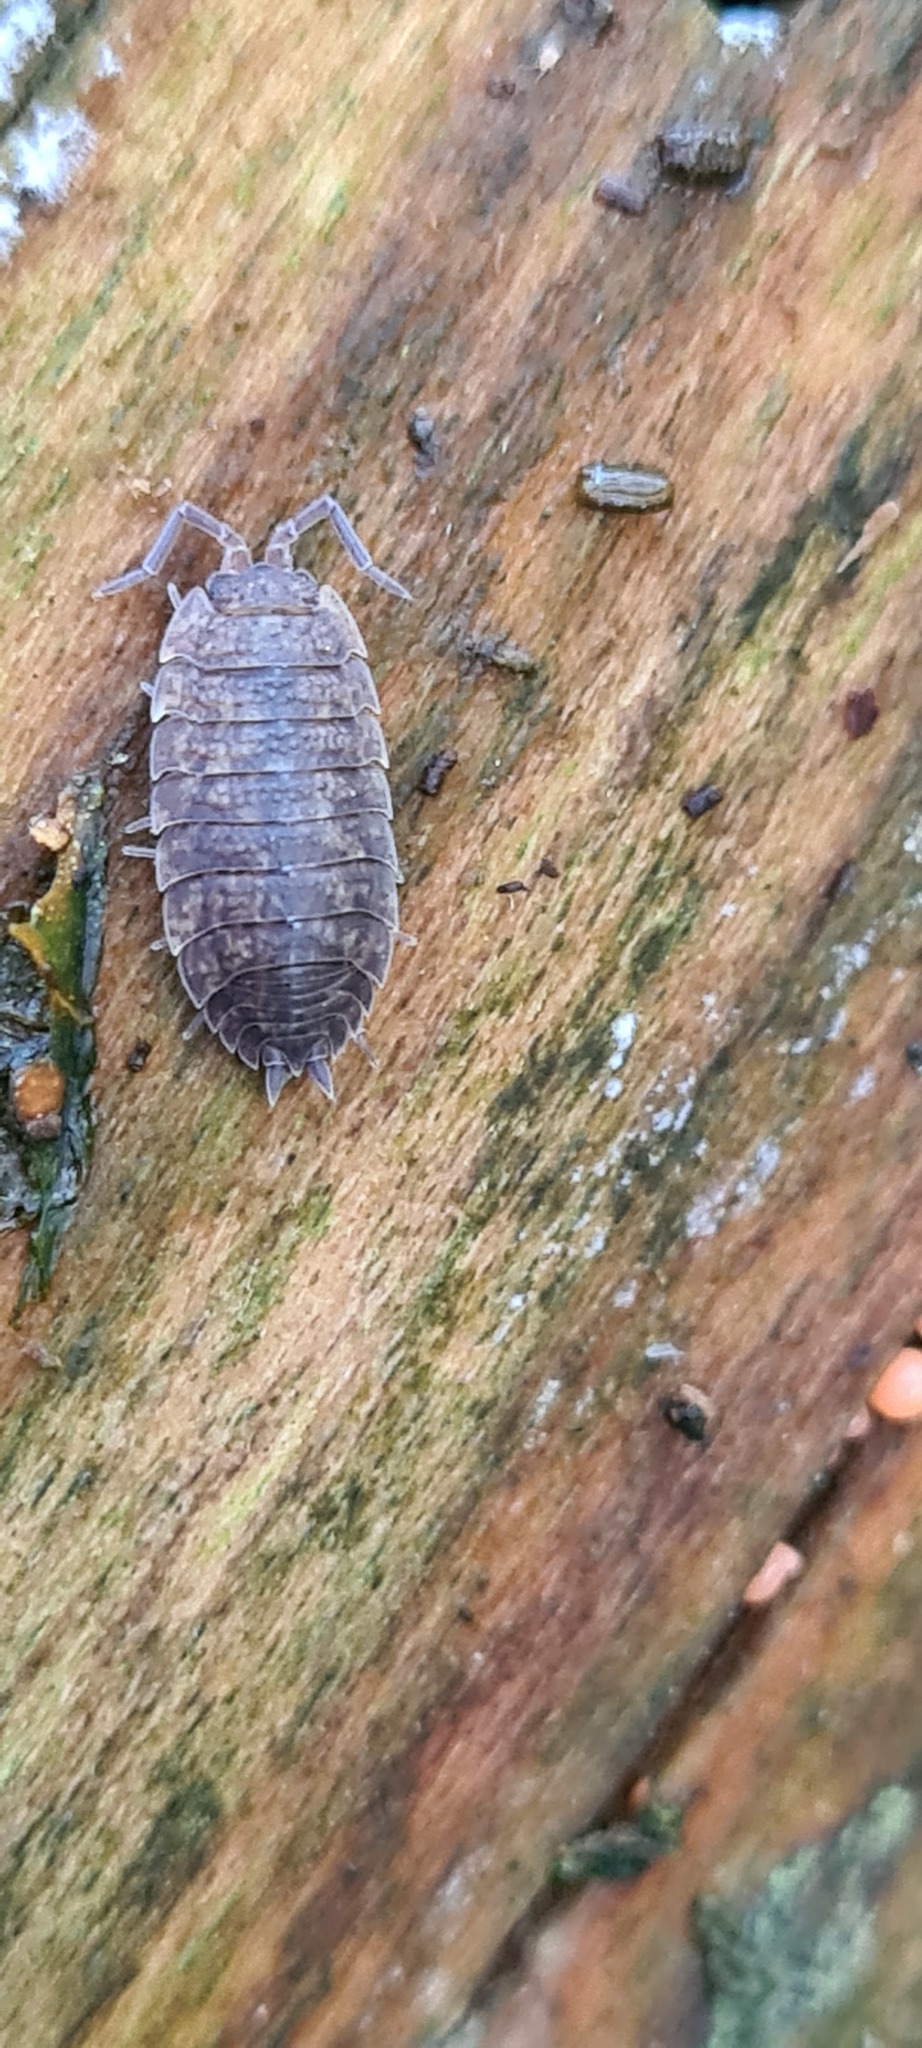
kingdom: Animalia
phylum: Arthropoda
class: Malacostraca
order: Isopoda
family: Porcellionidae
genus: Porcellio
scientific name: Porcellio scaber
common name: Common rough woodlouse
